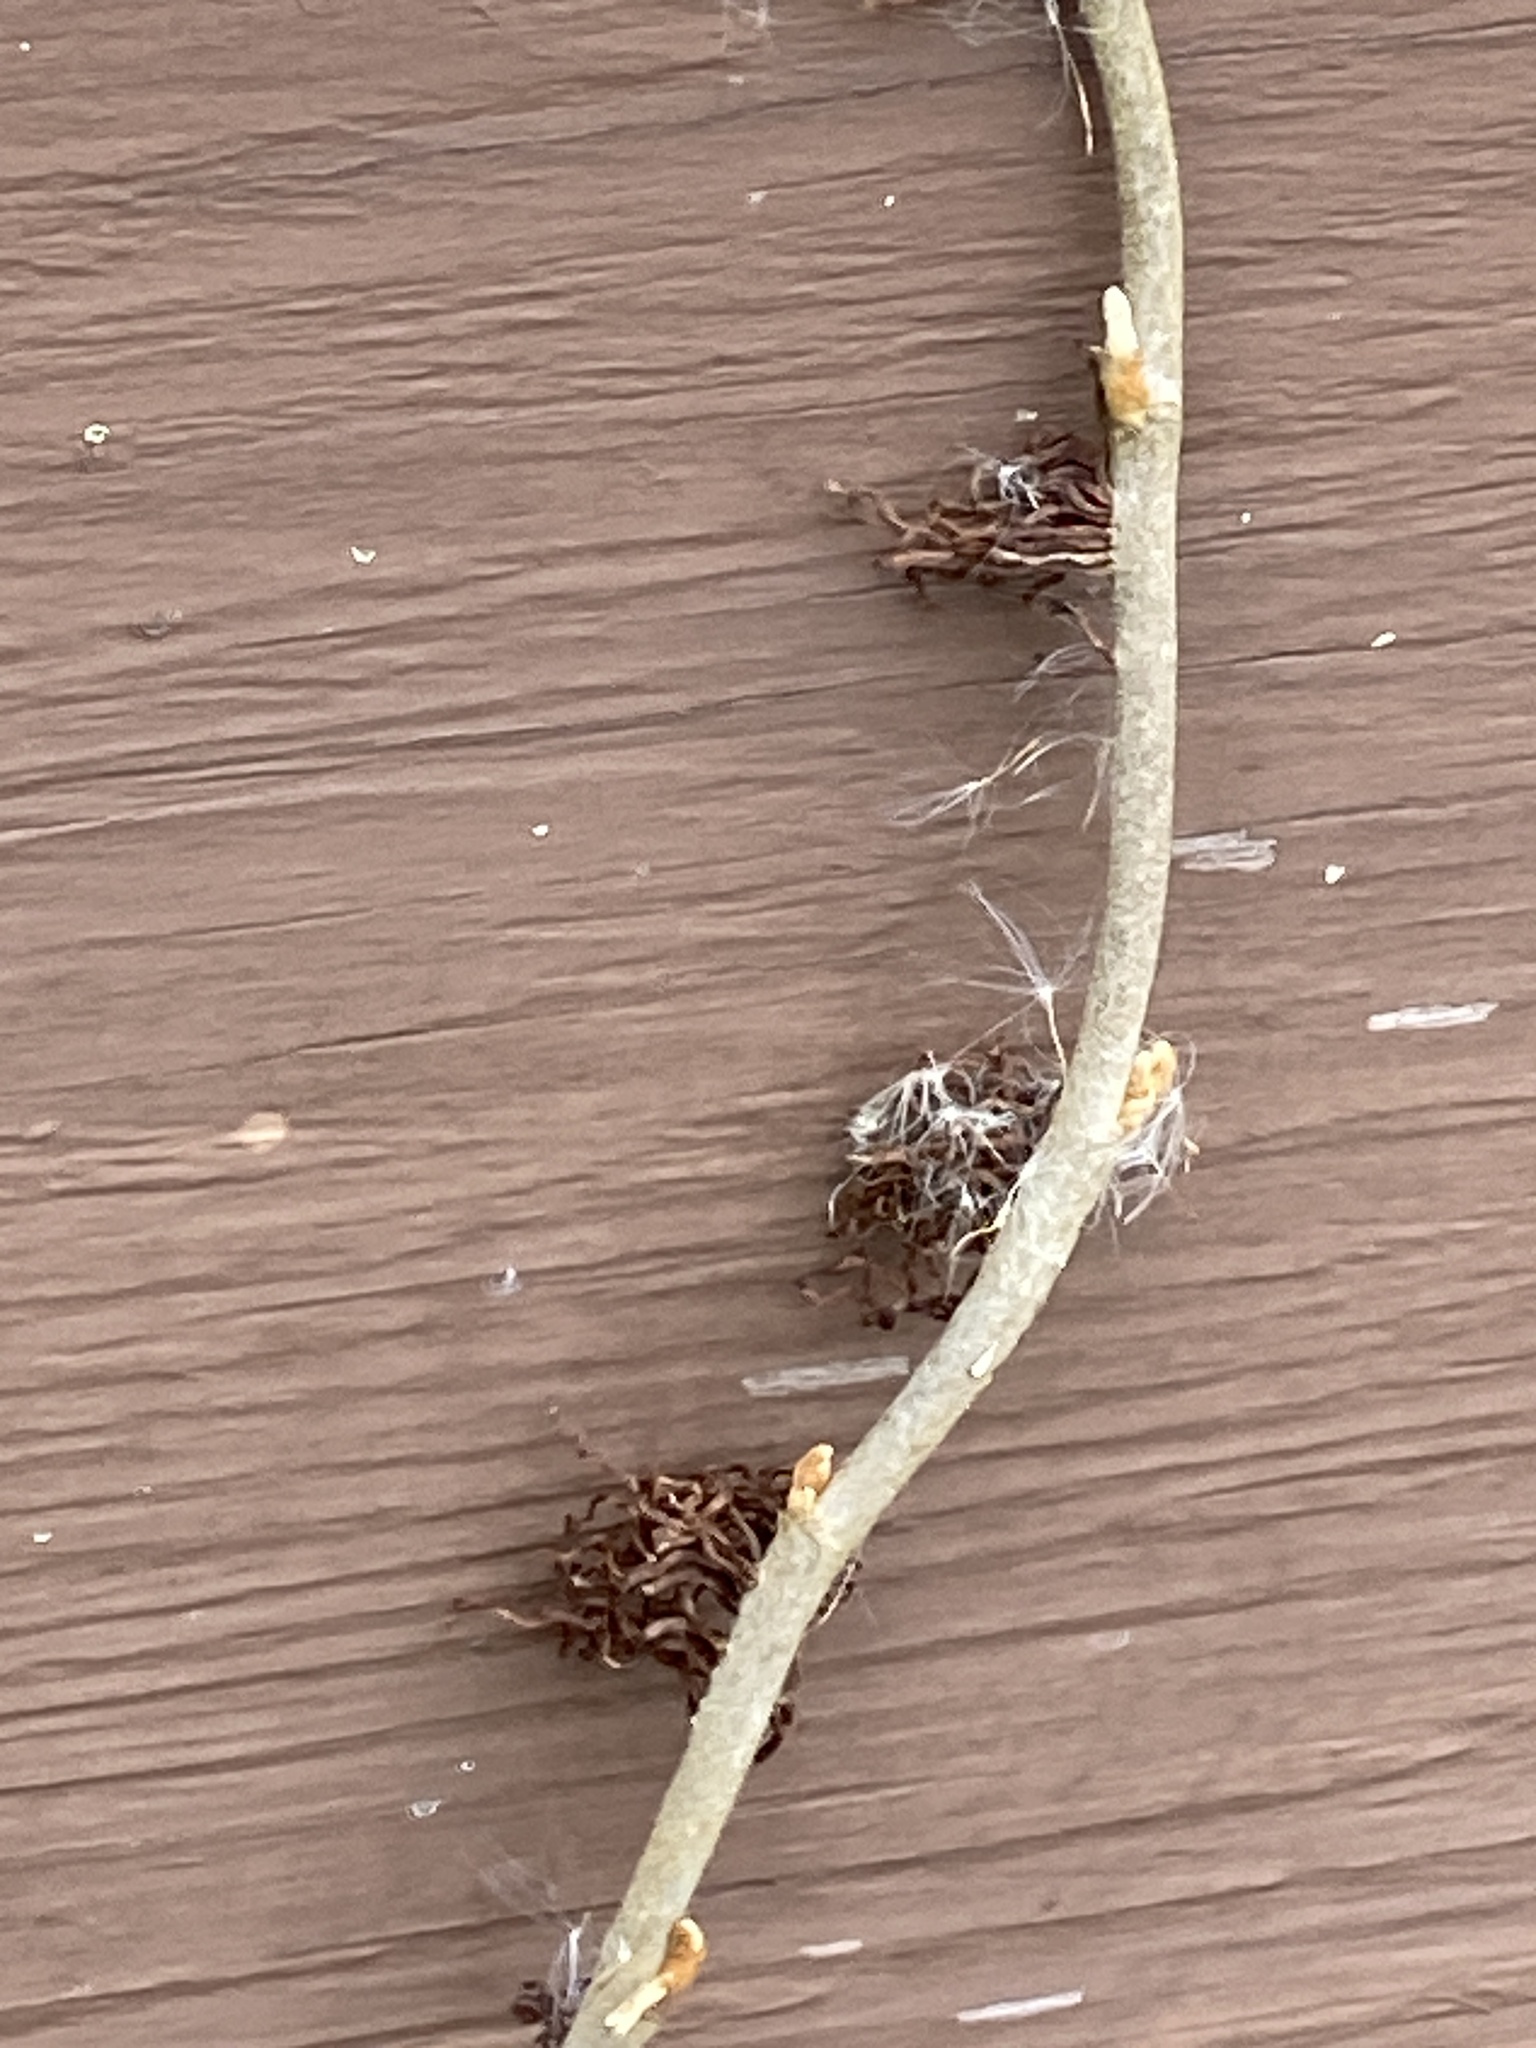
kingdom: Plantae
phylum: Tracheophyta
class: Magnoliopsida
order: Sapindales
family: Anacardiaceae
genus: Toxicodendron
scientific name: Toxicodendron radicans
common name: Poison ivy
